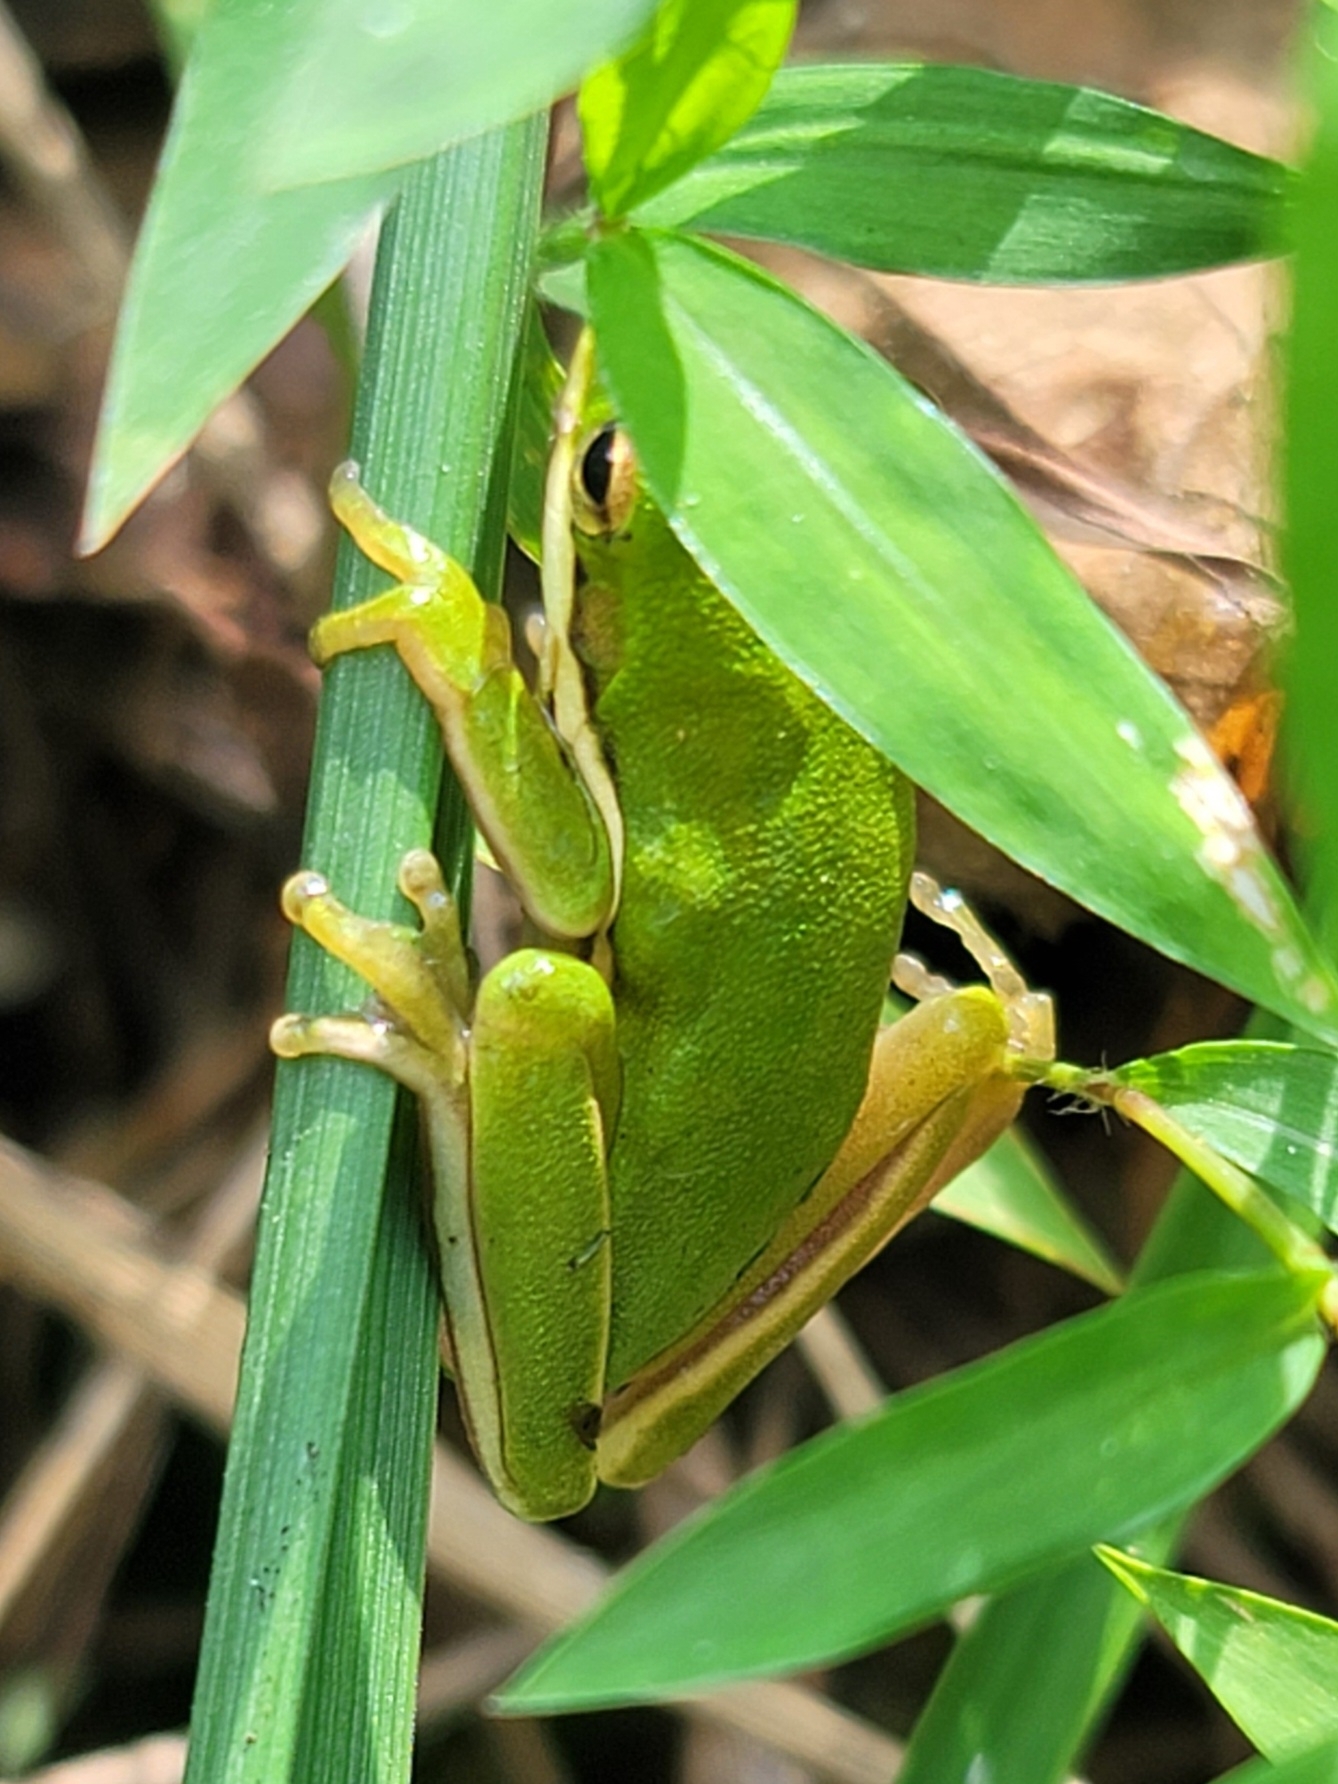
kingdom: Animalia
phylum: Chordata
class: Amphibia
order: Anura
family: Hylidae
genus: Dryophytes
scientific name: Dryophytes cinereus
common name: Green treefrog
